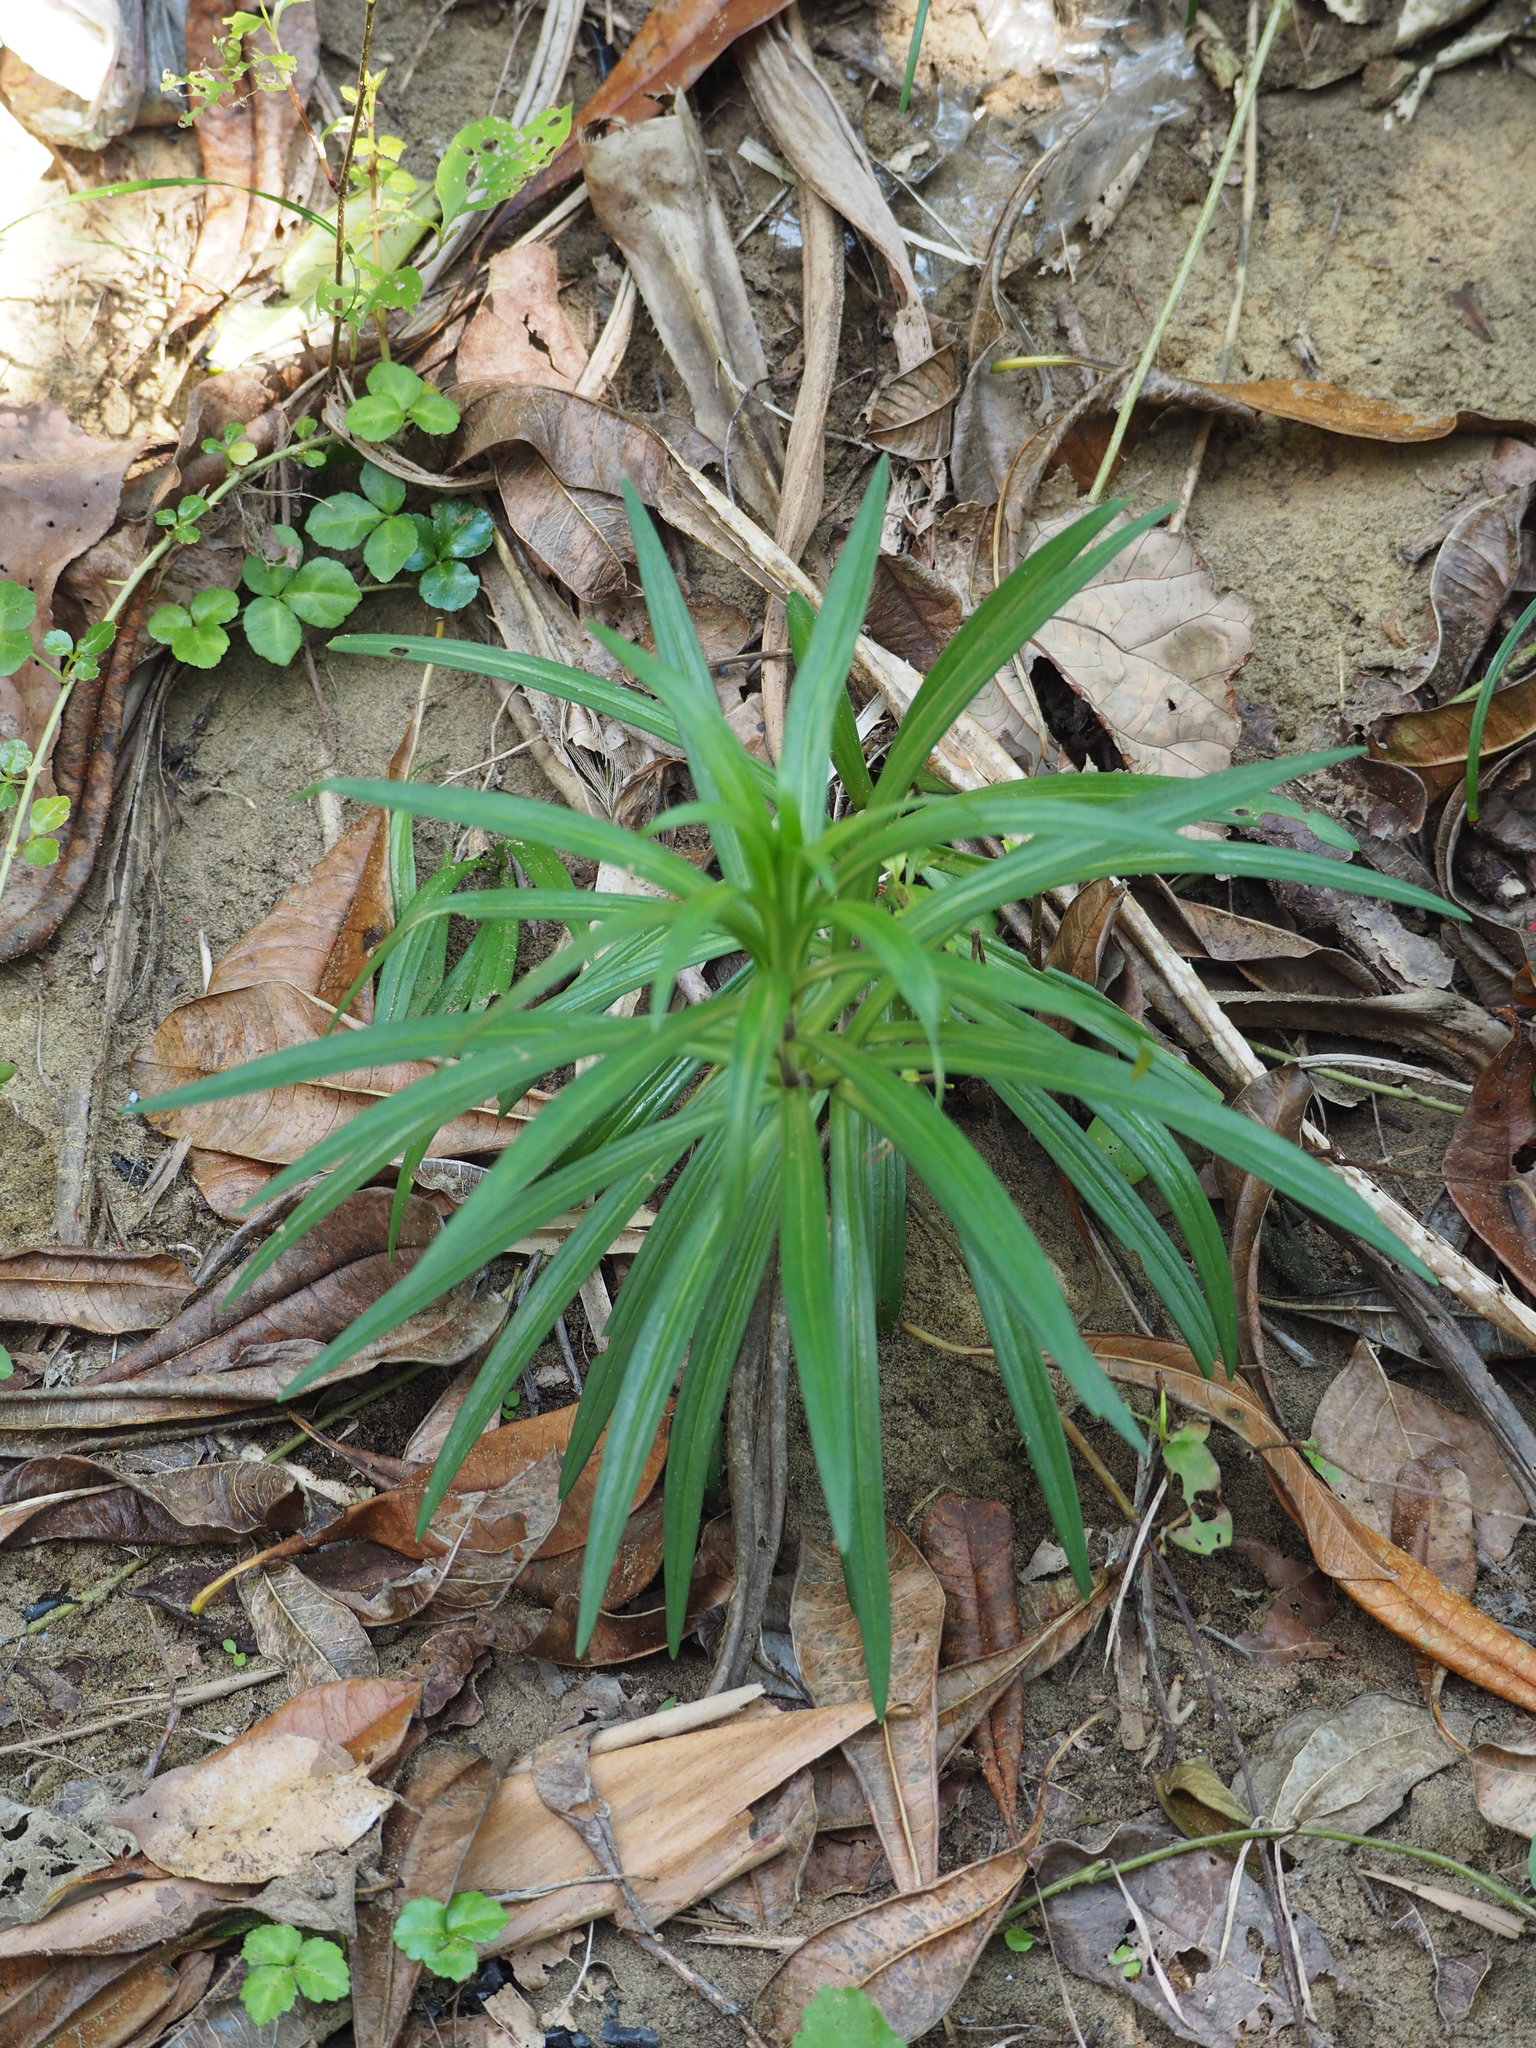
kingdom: Plantae
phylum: Tracheophyta
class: Liliopsida
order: Liliales
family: Liliaceae
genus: Lilium
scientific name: Lilium formosanum
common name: Formosa lily
